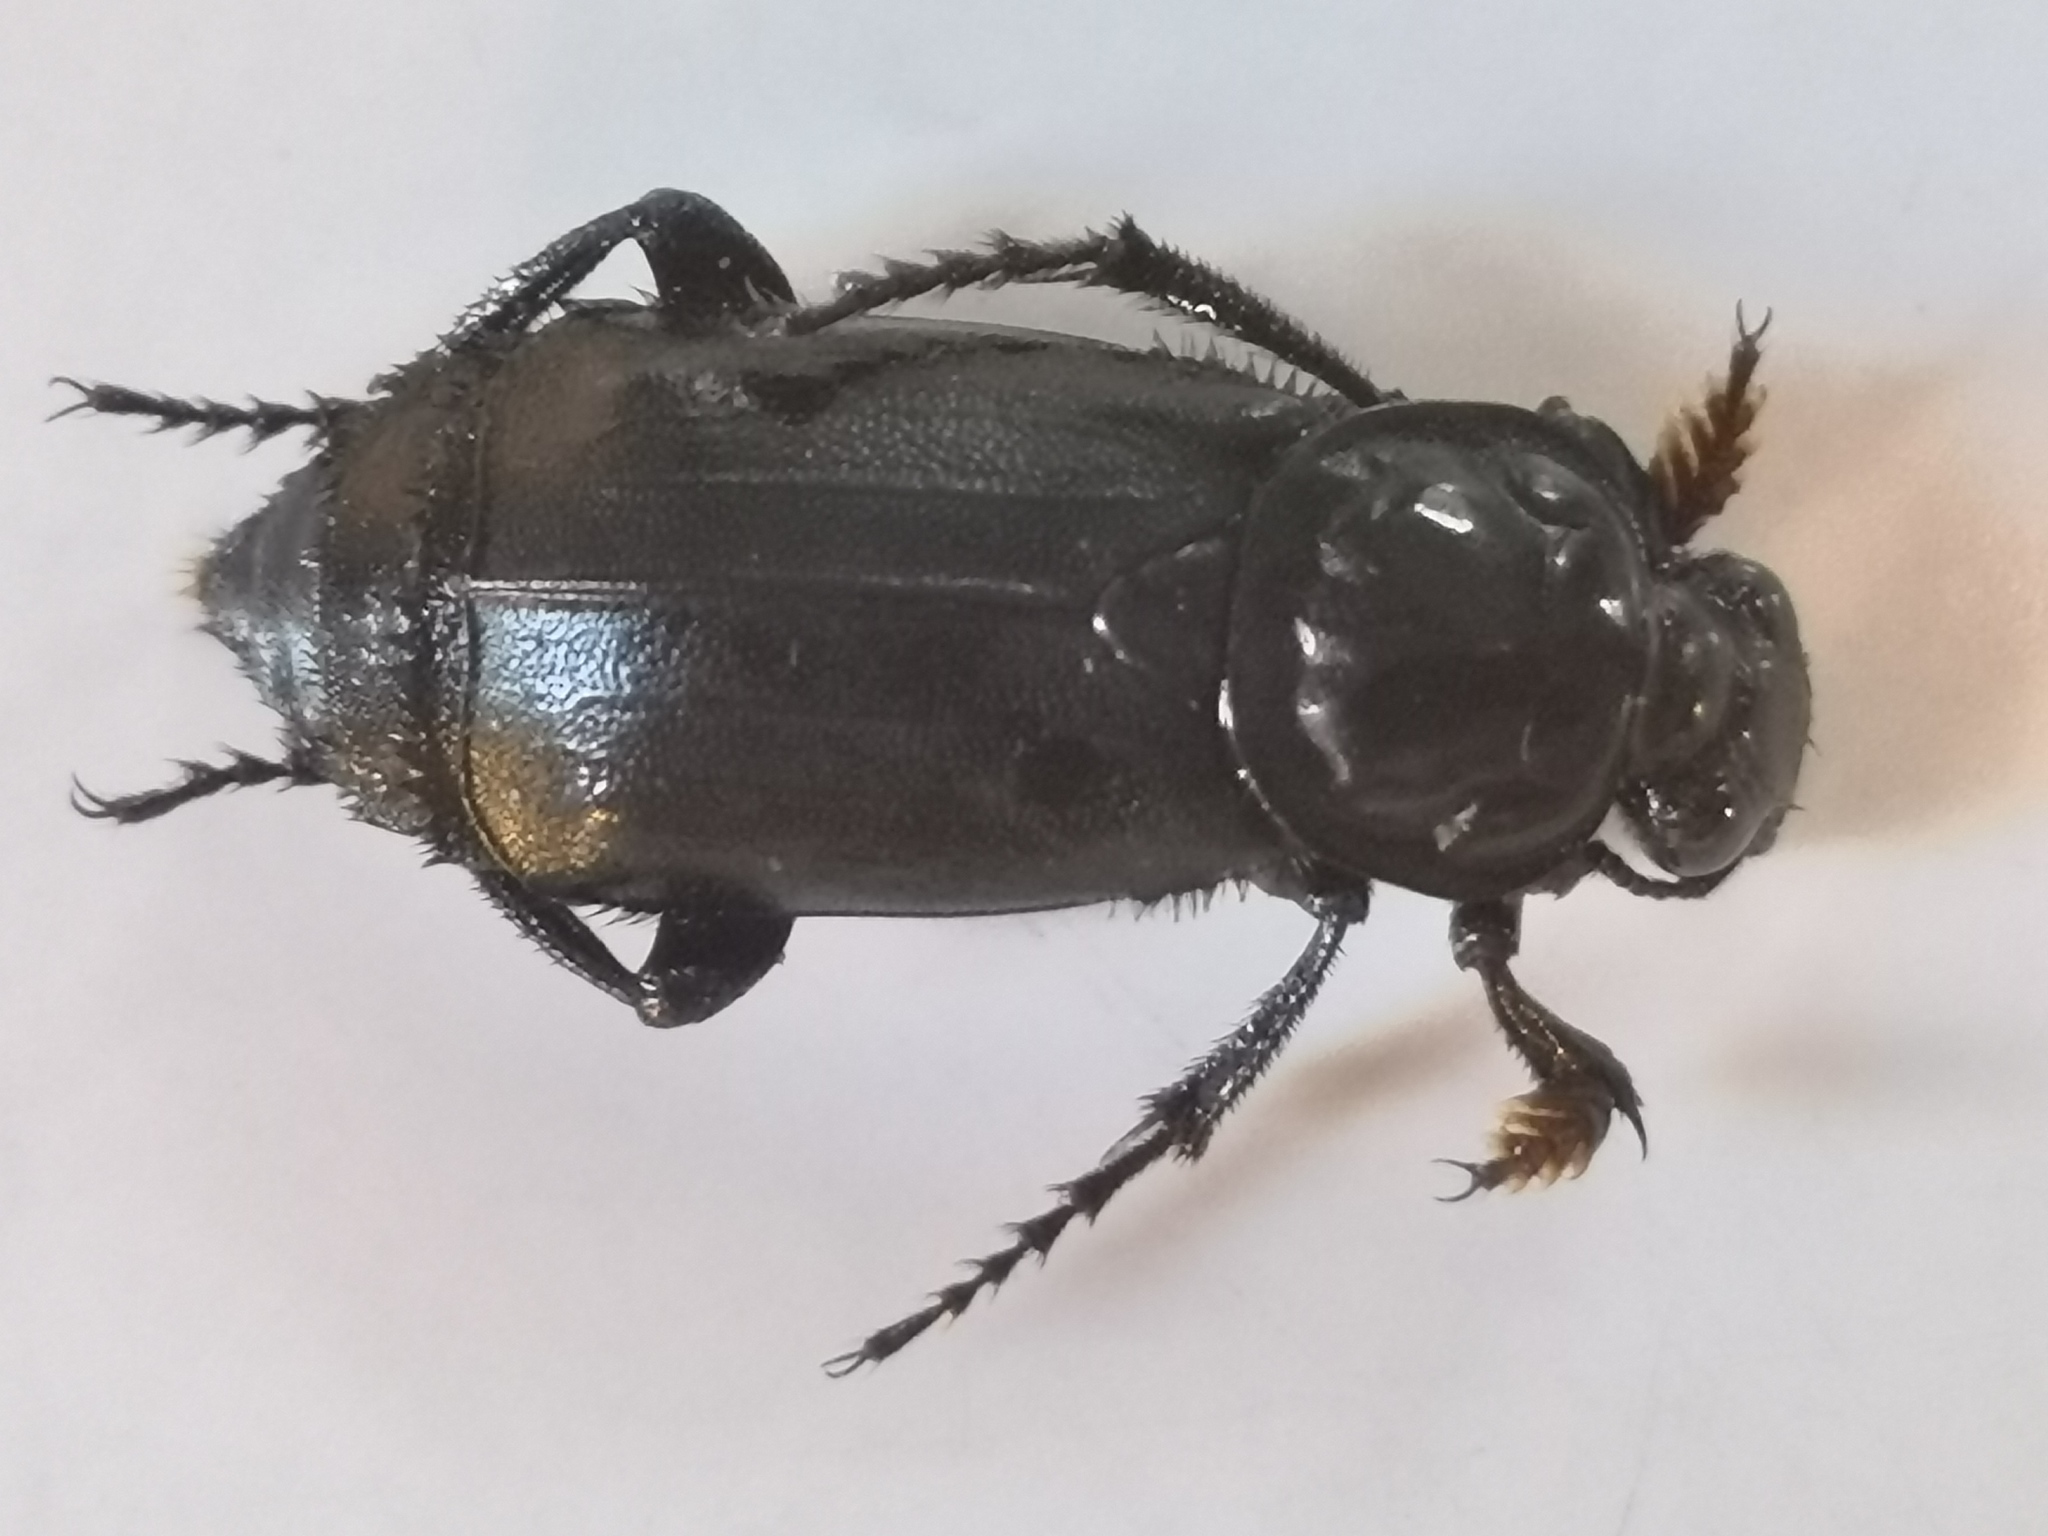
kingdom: Animalia
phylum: Arthropoda
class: Insecta
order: Coleoptera
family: Staphylinidae
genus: Nicrophorus
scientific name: Nicrophorus humator
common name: Black sexton beetle
